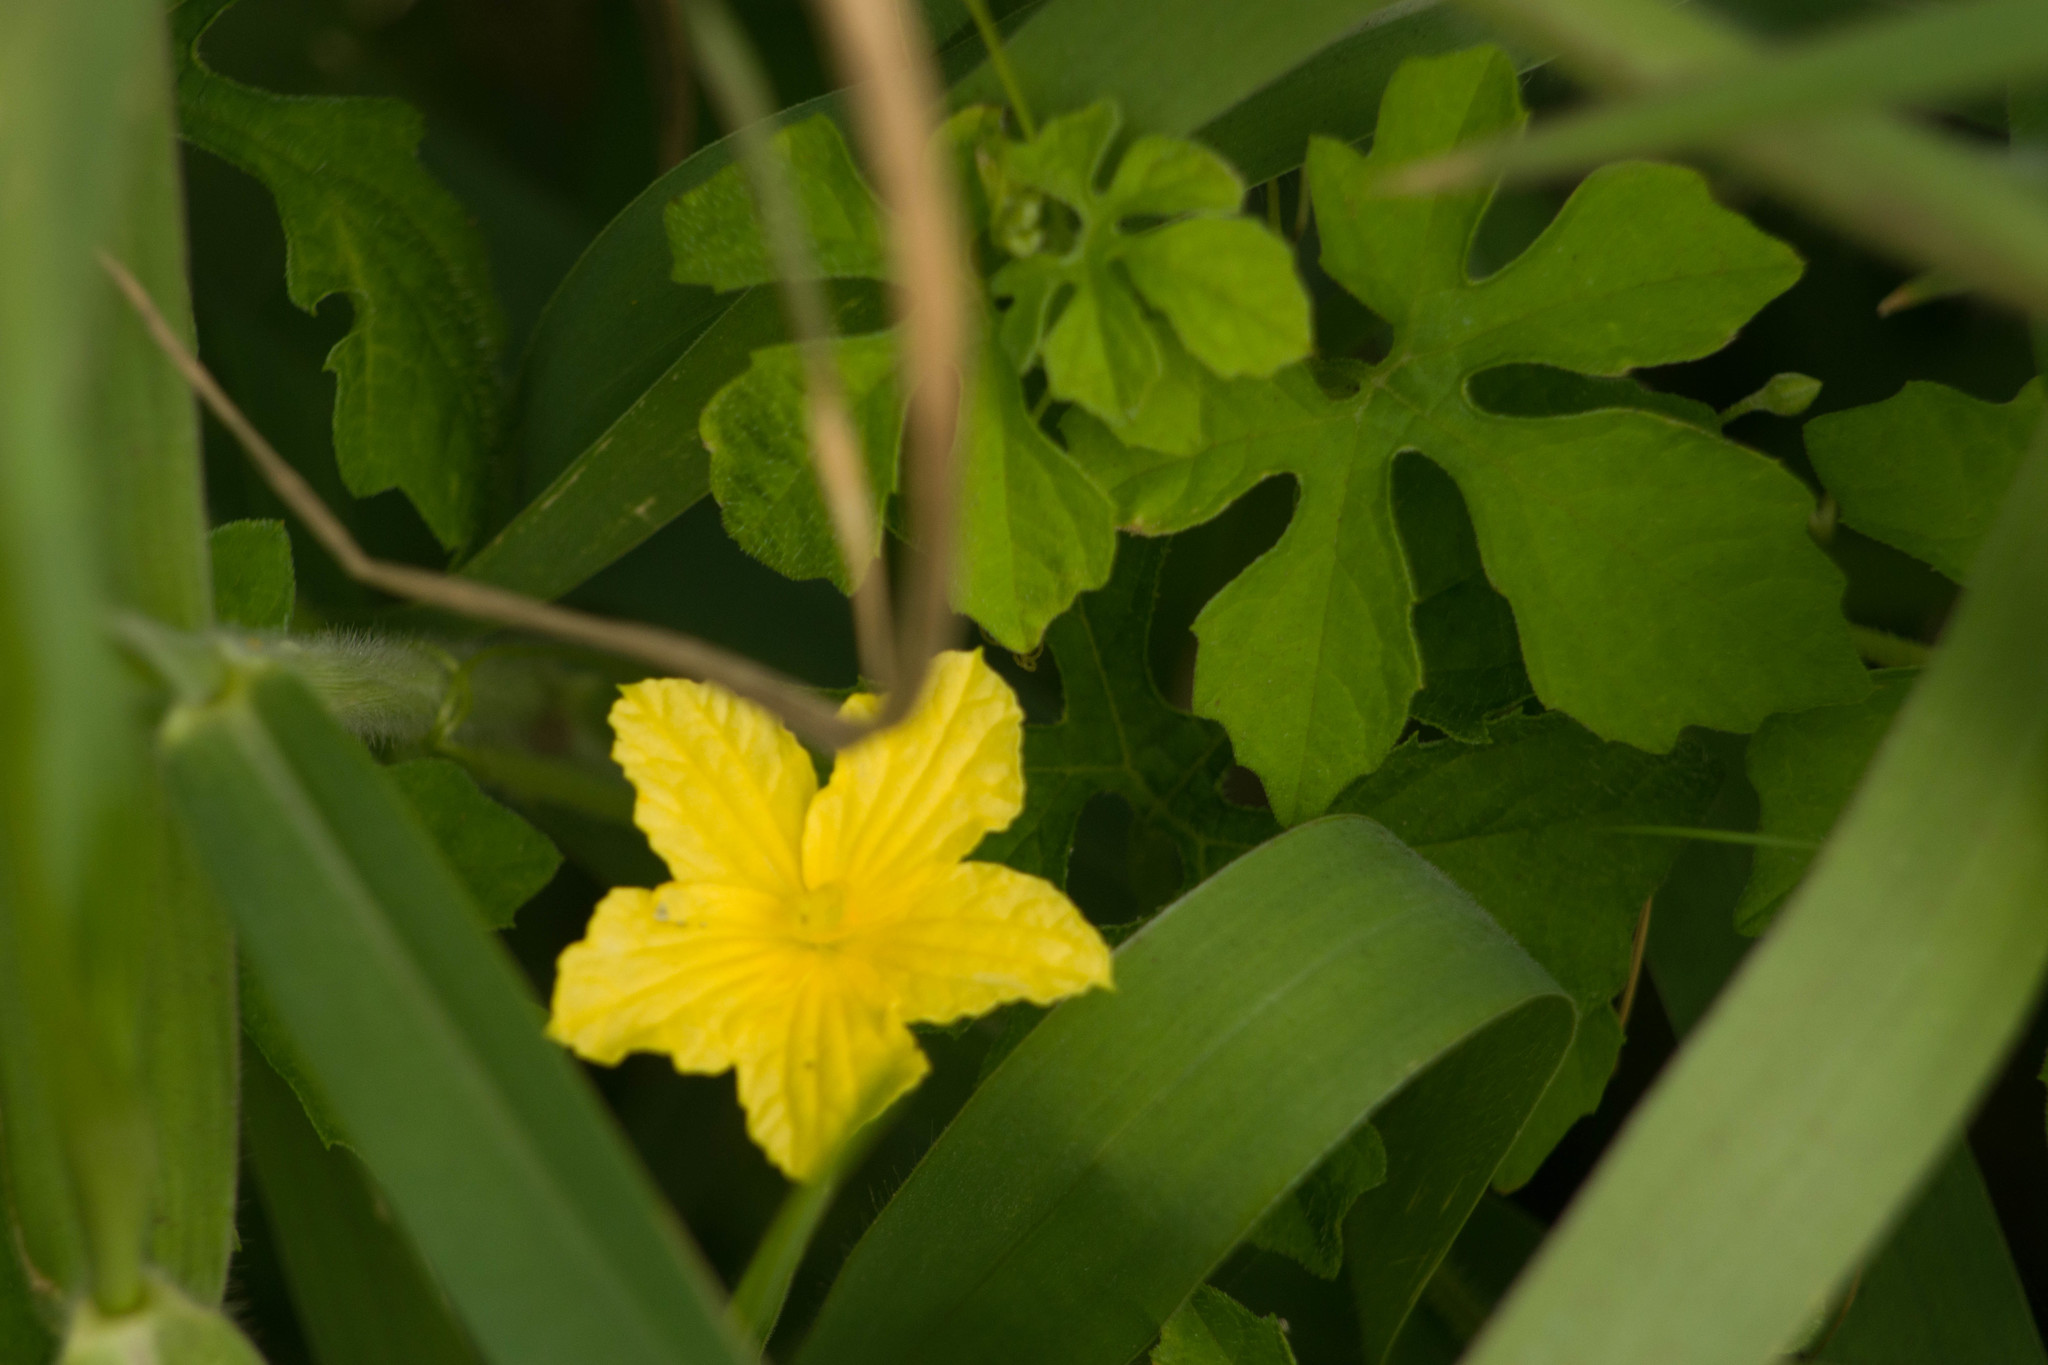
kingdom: Plantae
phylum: Tracheophyta
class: Magnoliopsida
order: Cucurbitales
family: Cucurbitaceae
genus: Momordica
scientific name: Momordica charantia
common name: Balsampear
